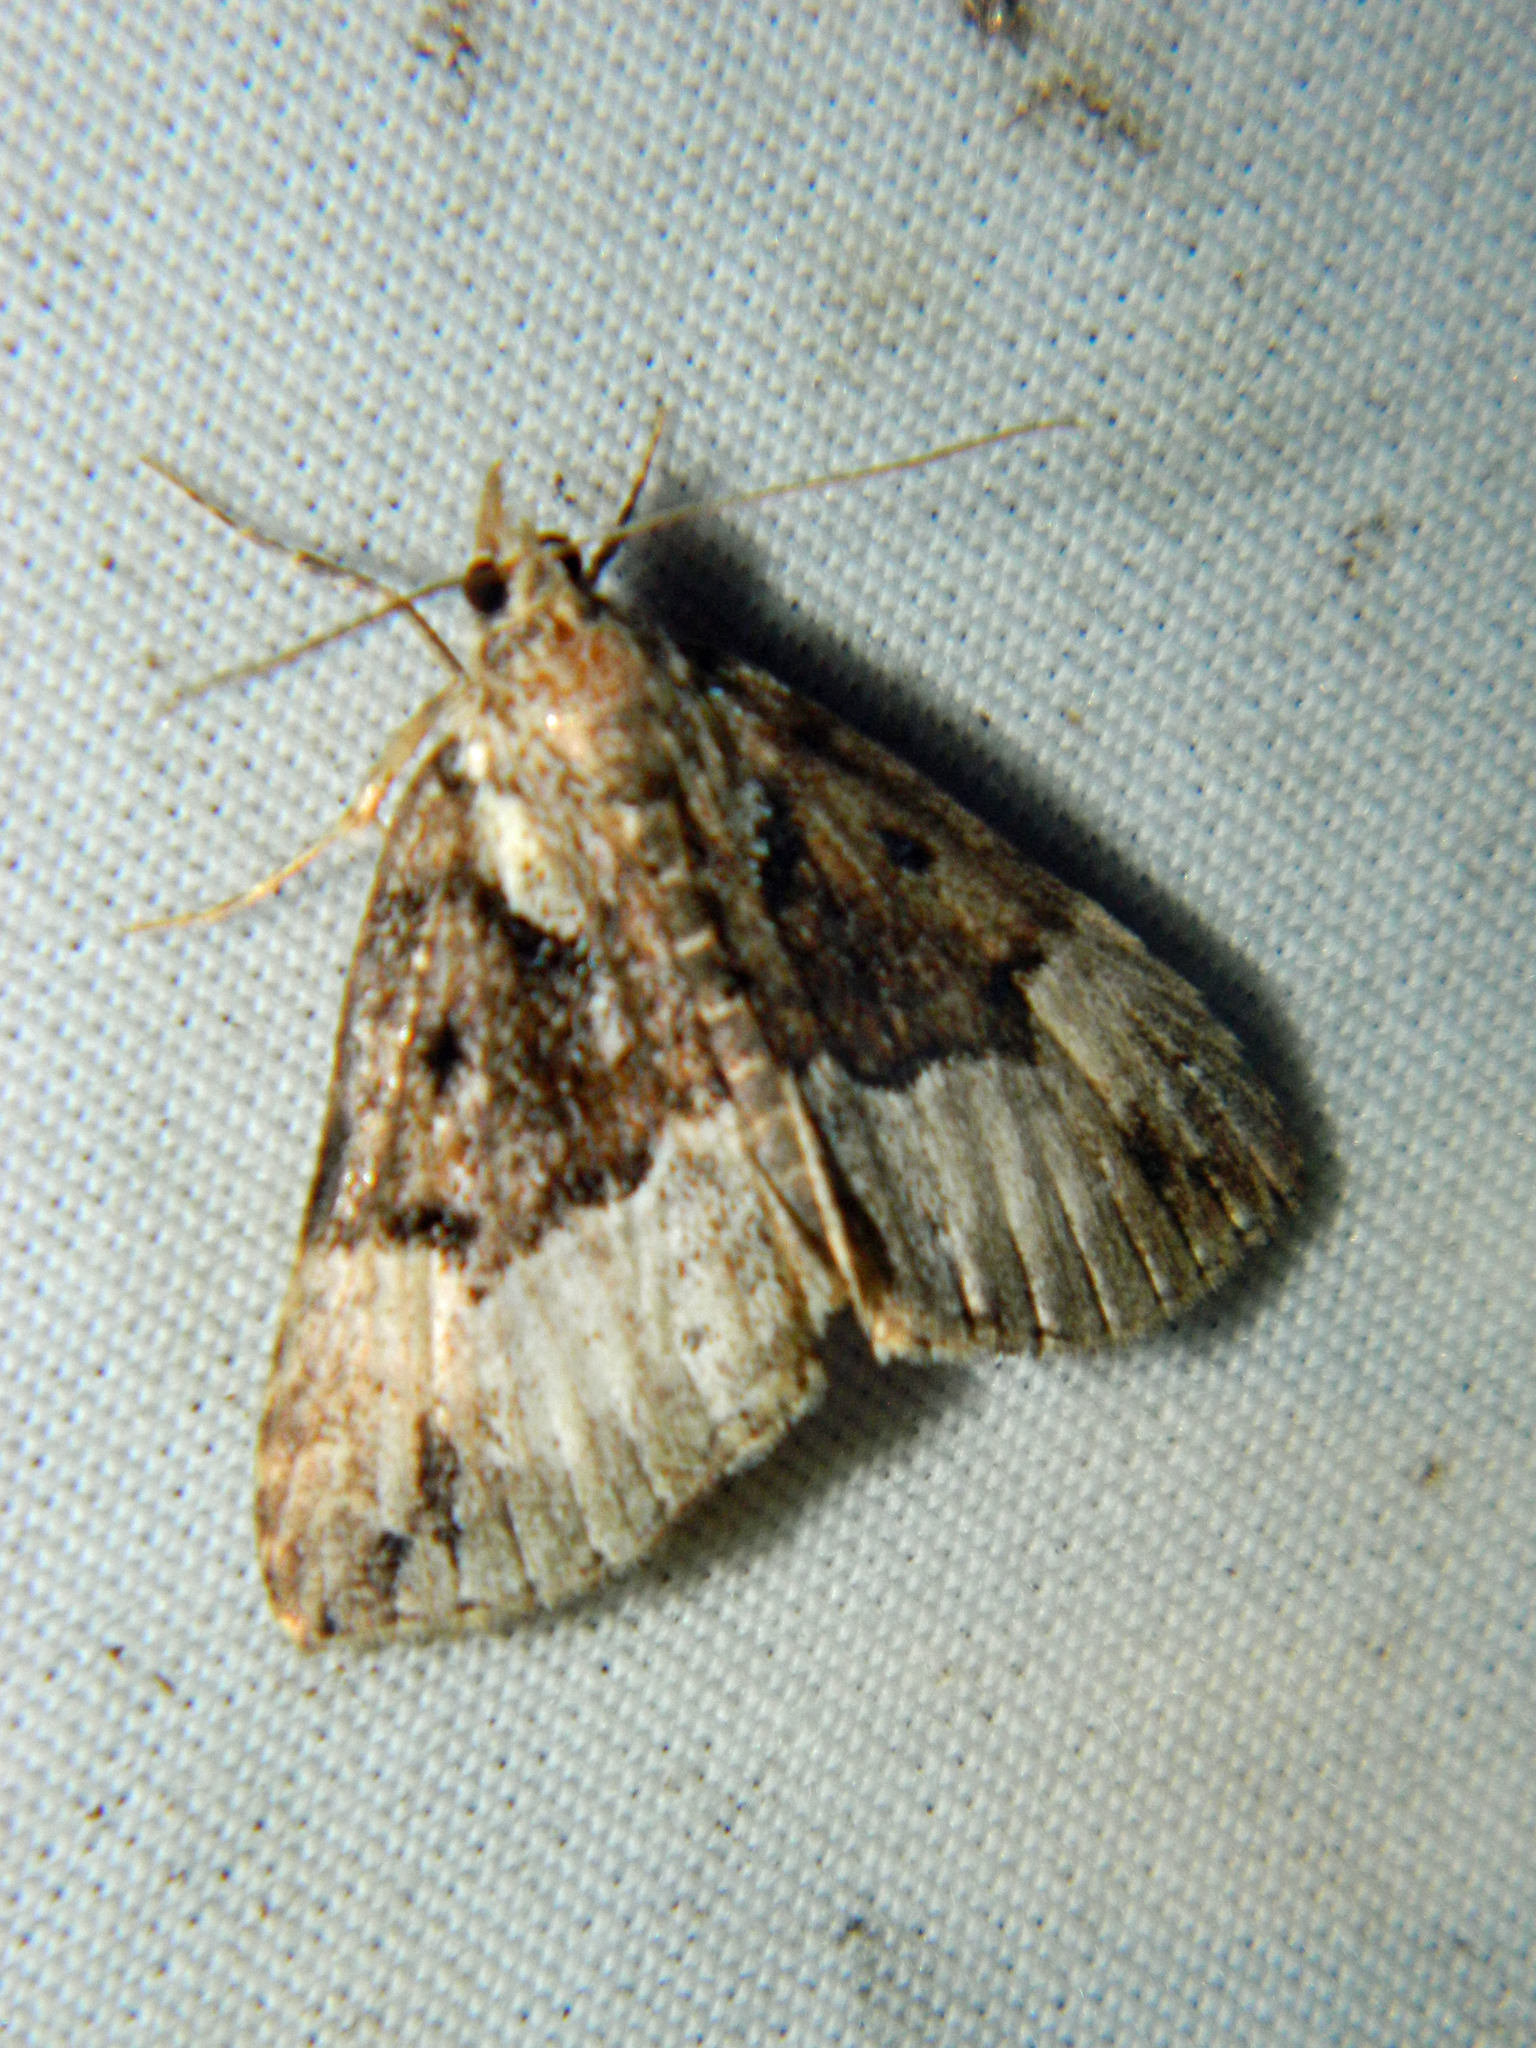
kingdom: Animalia
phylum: Arthropoda
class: Insecta
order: Lepidoptera
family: Erebidae
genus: Hypena
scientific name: Hypena palparia
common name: Mottled bomolocha moth
